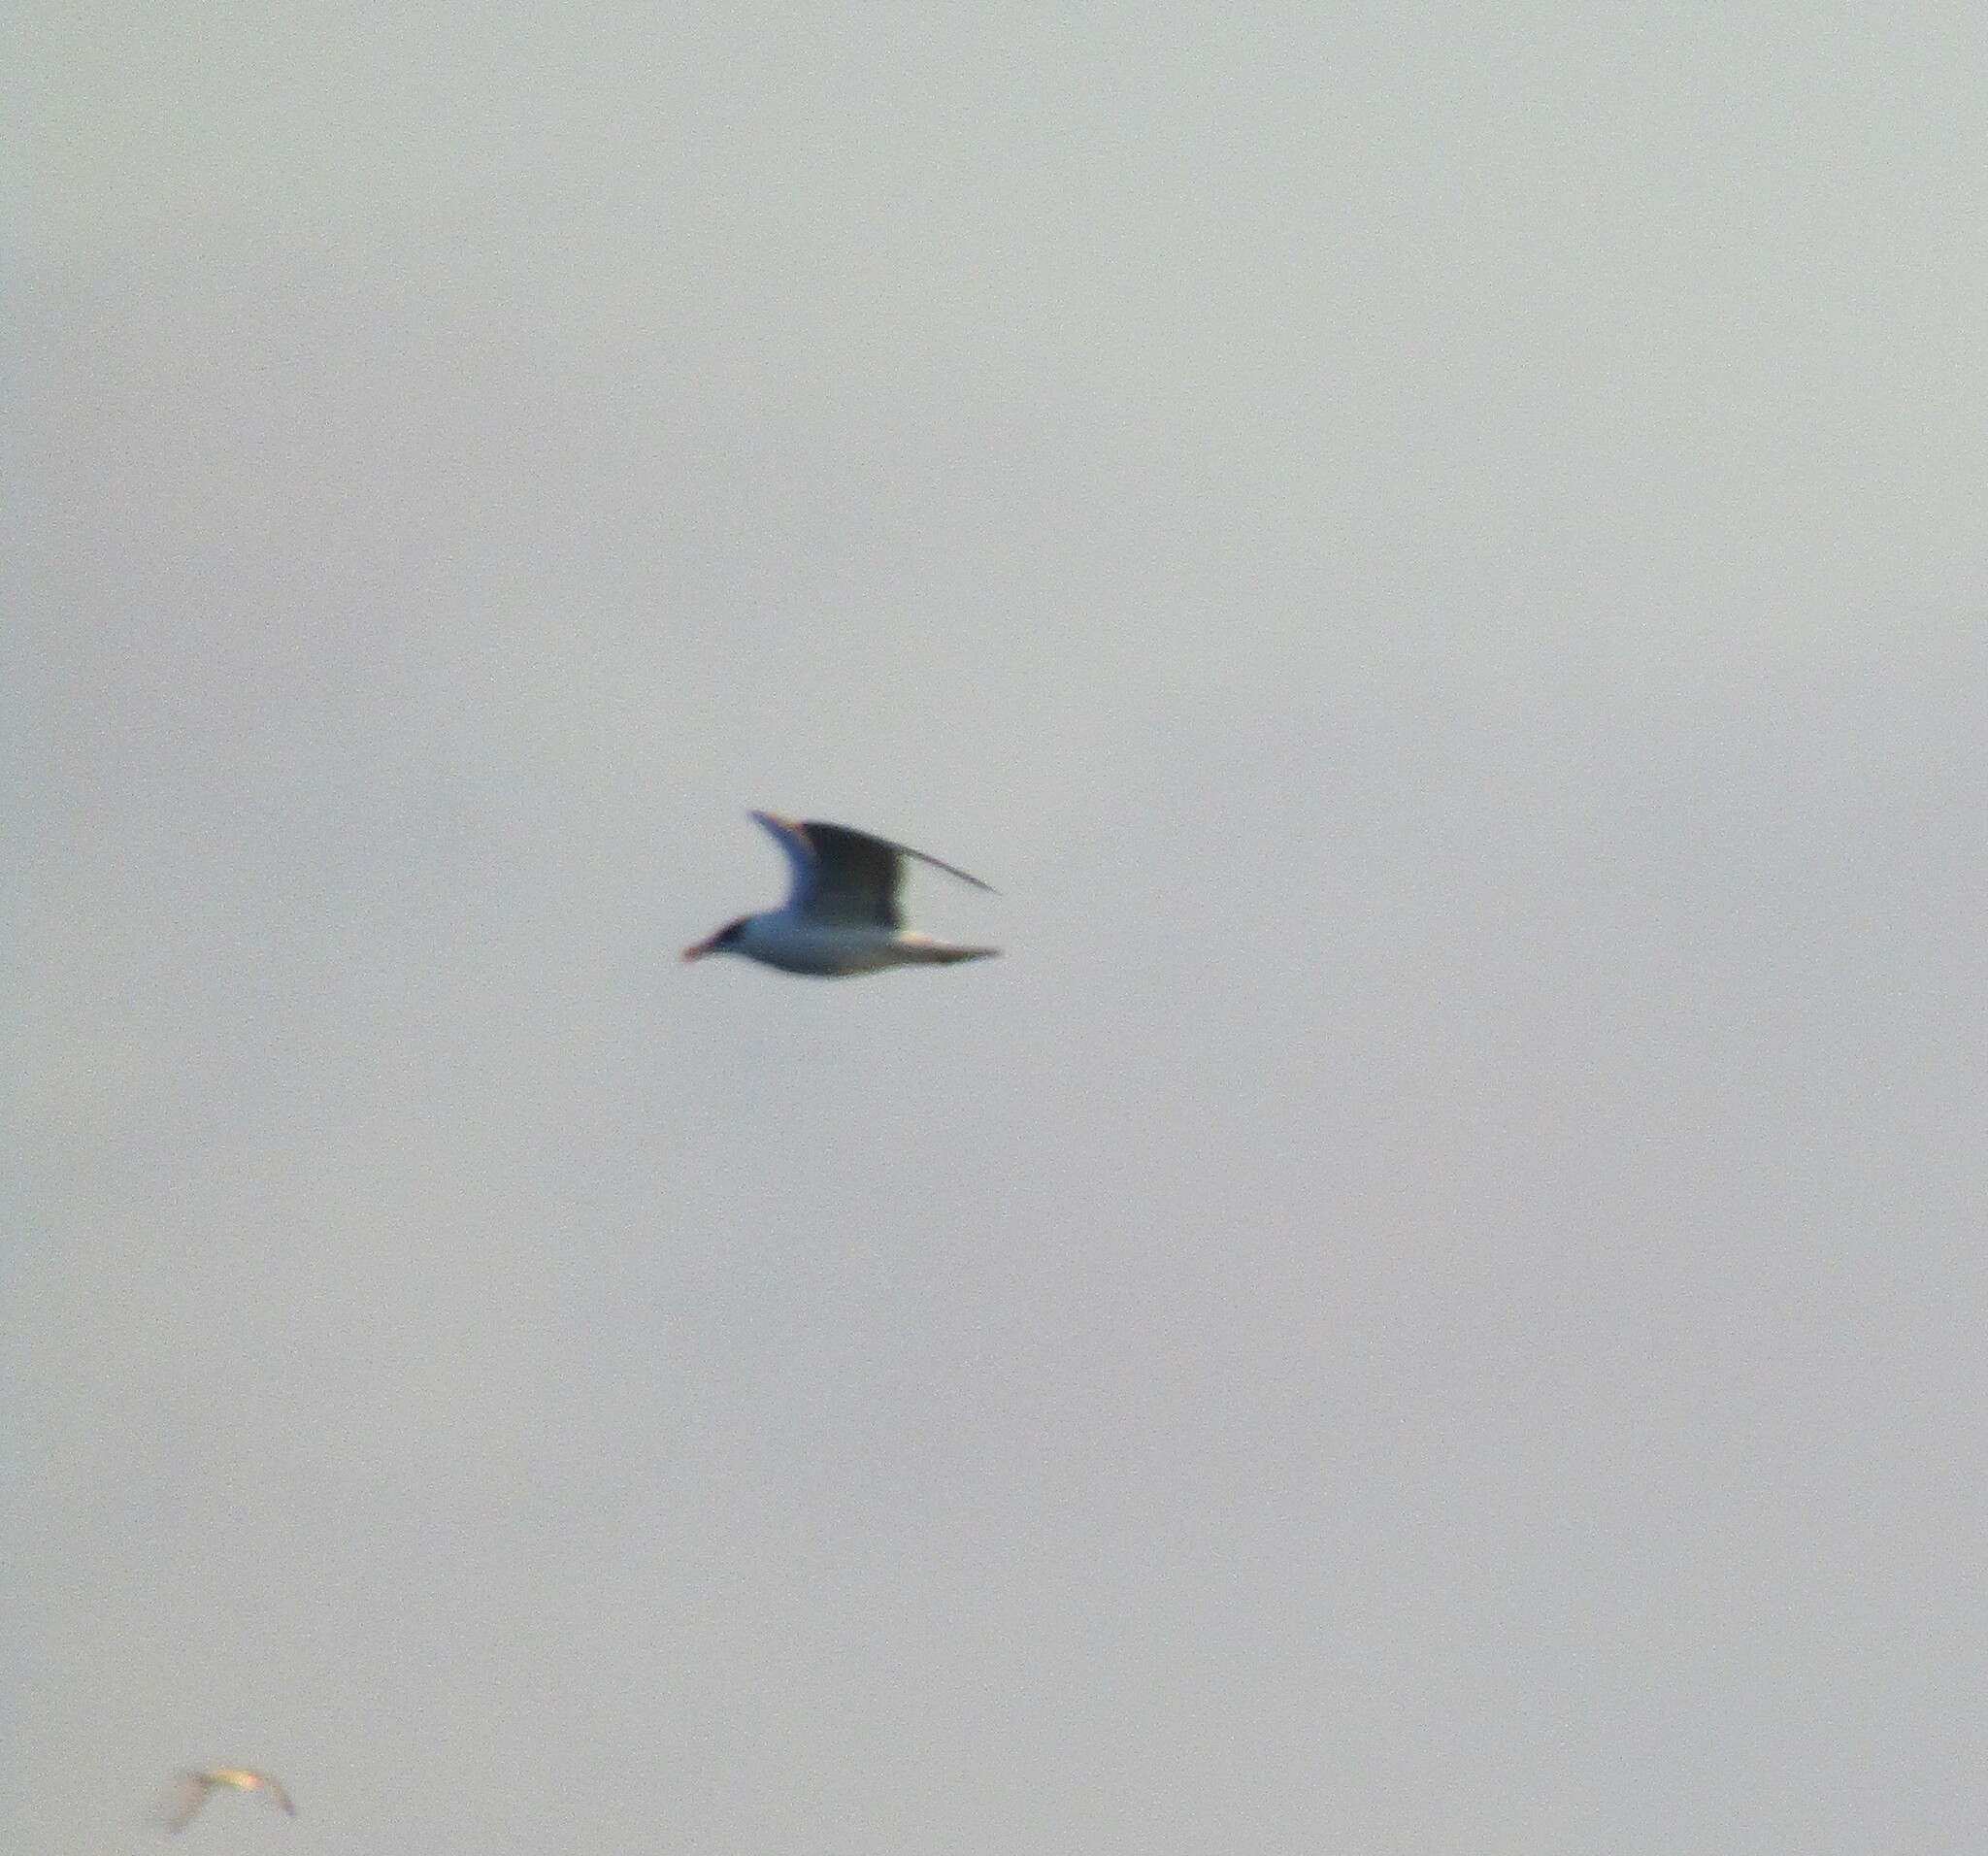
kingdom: Animalia
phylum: Chordata
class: Aves
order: Charadriiformes
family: Laridae
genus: Ichthyaetus
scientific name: Ichthyaetus ichthyaetus
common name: Pallas's gull
